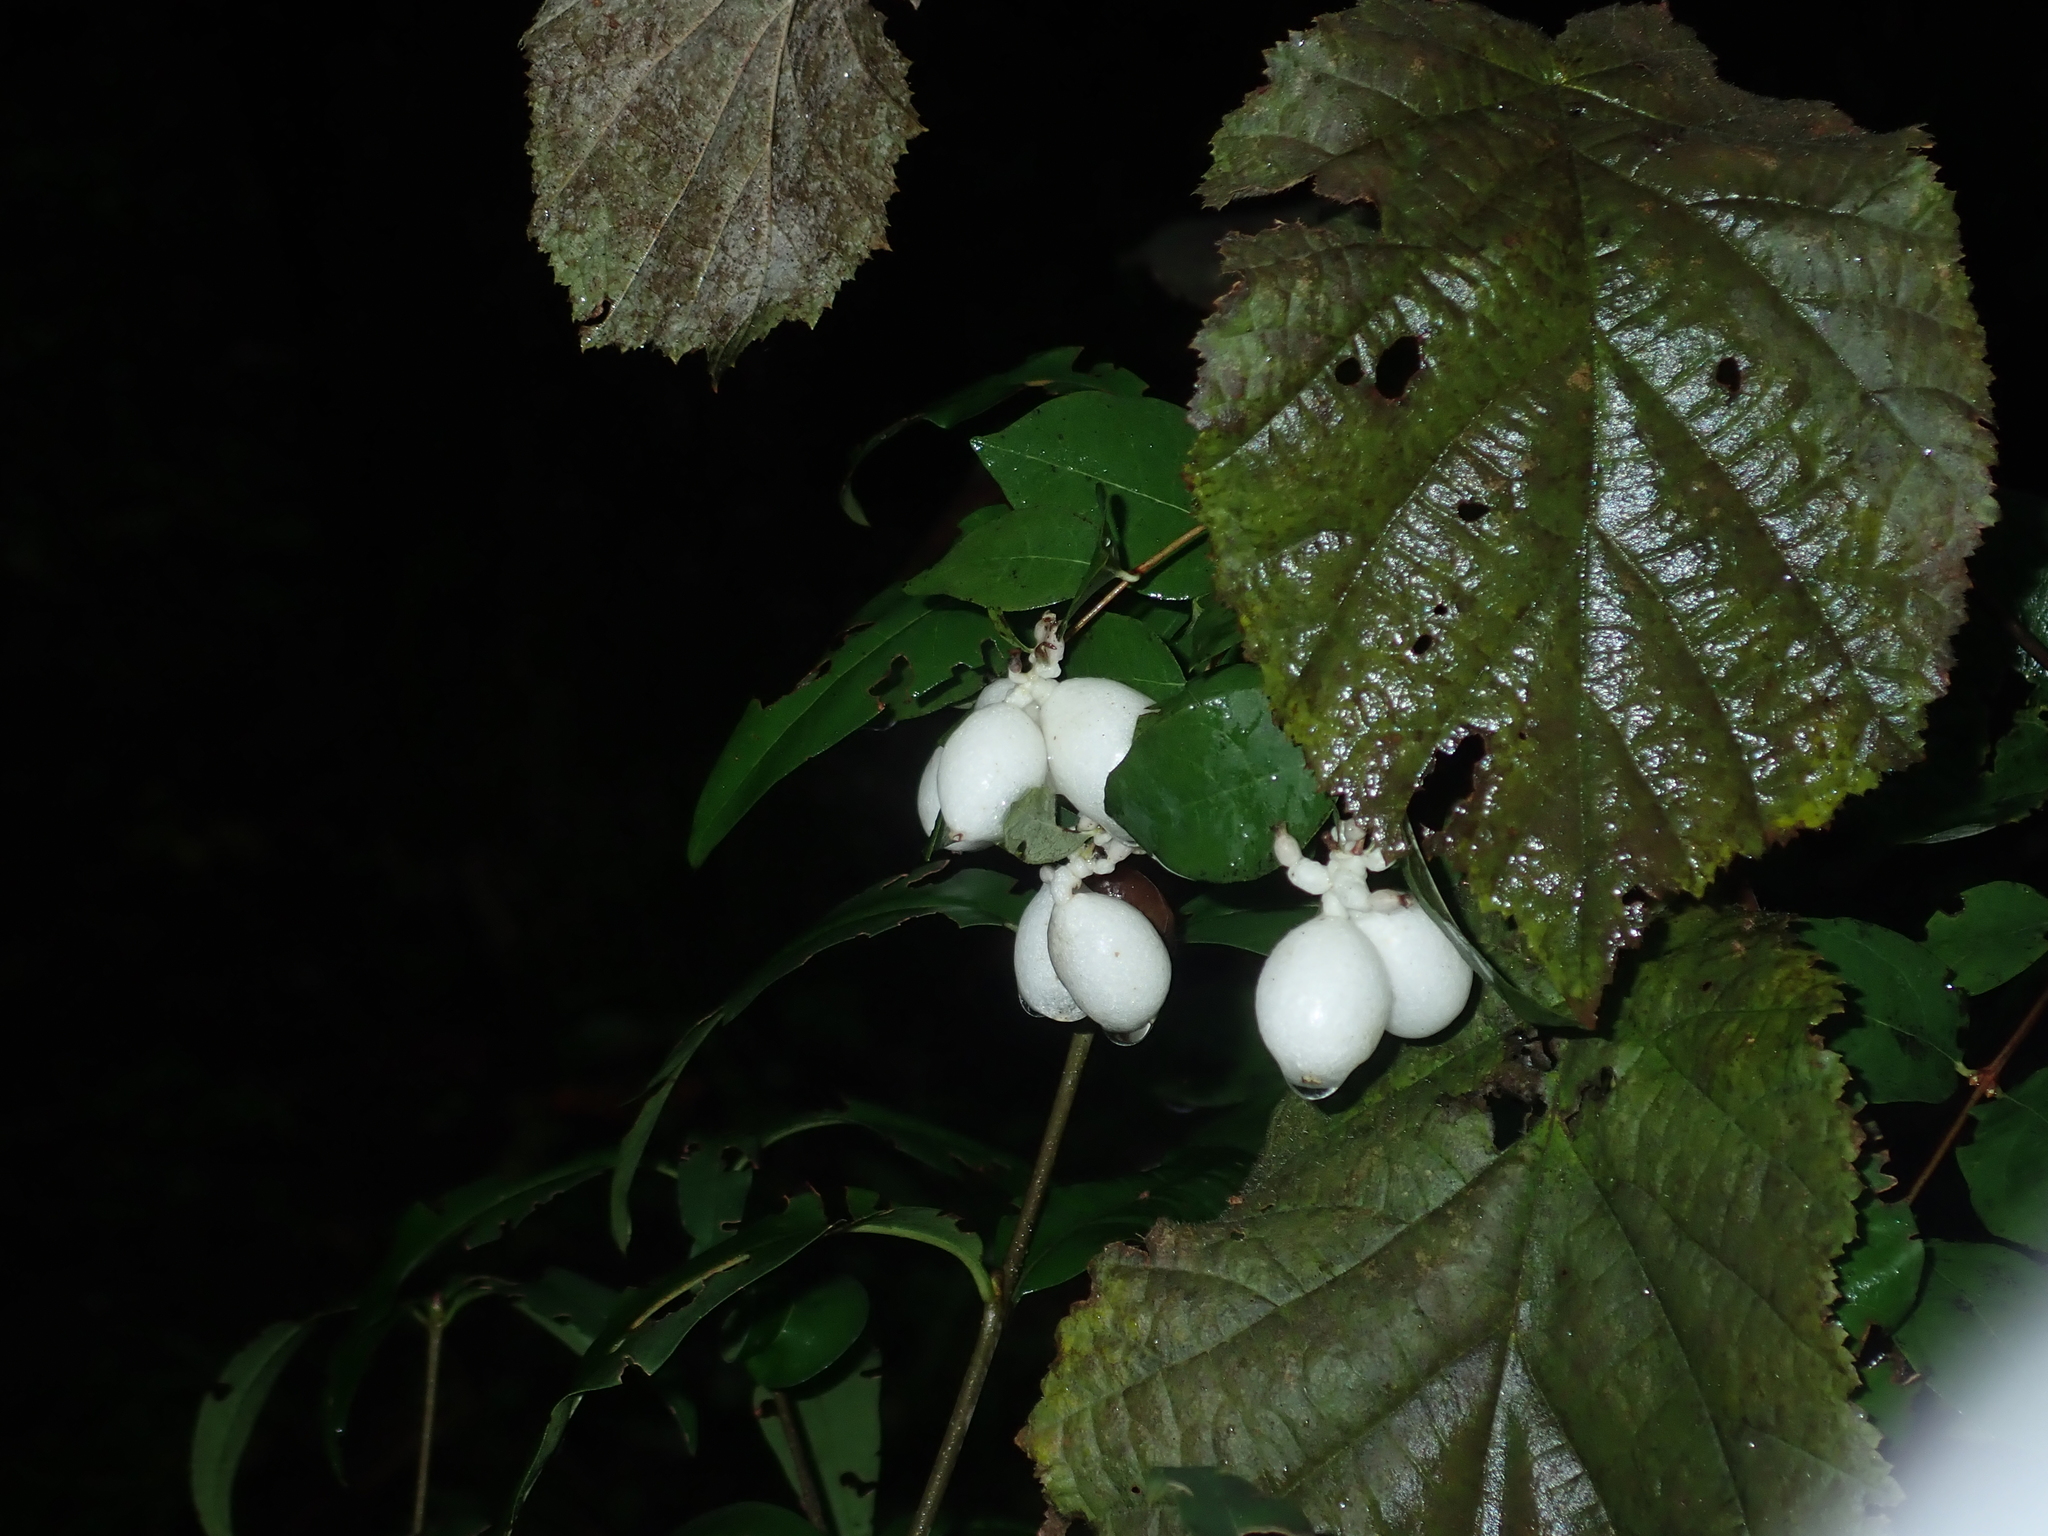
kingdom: Plantae
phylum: Tracheophyta
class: Magnoliopsida
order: Dipsacales
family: Caprifoliaceae
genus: Symphoricarpos
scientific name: Symphoricarpos albus
